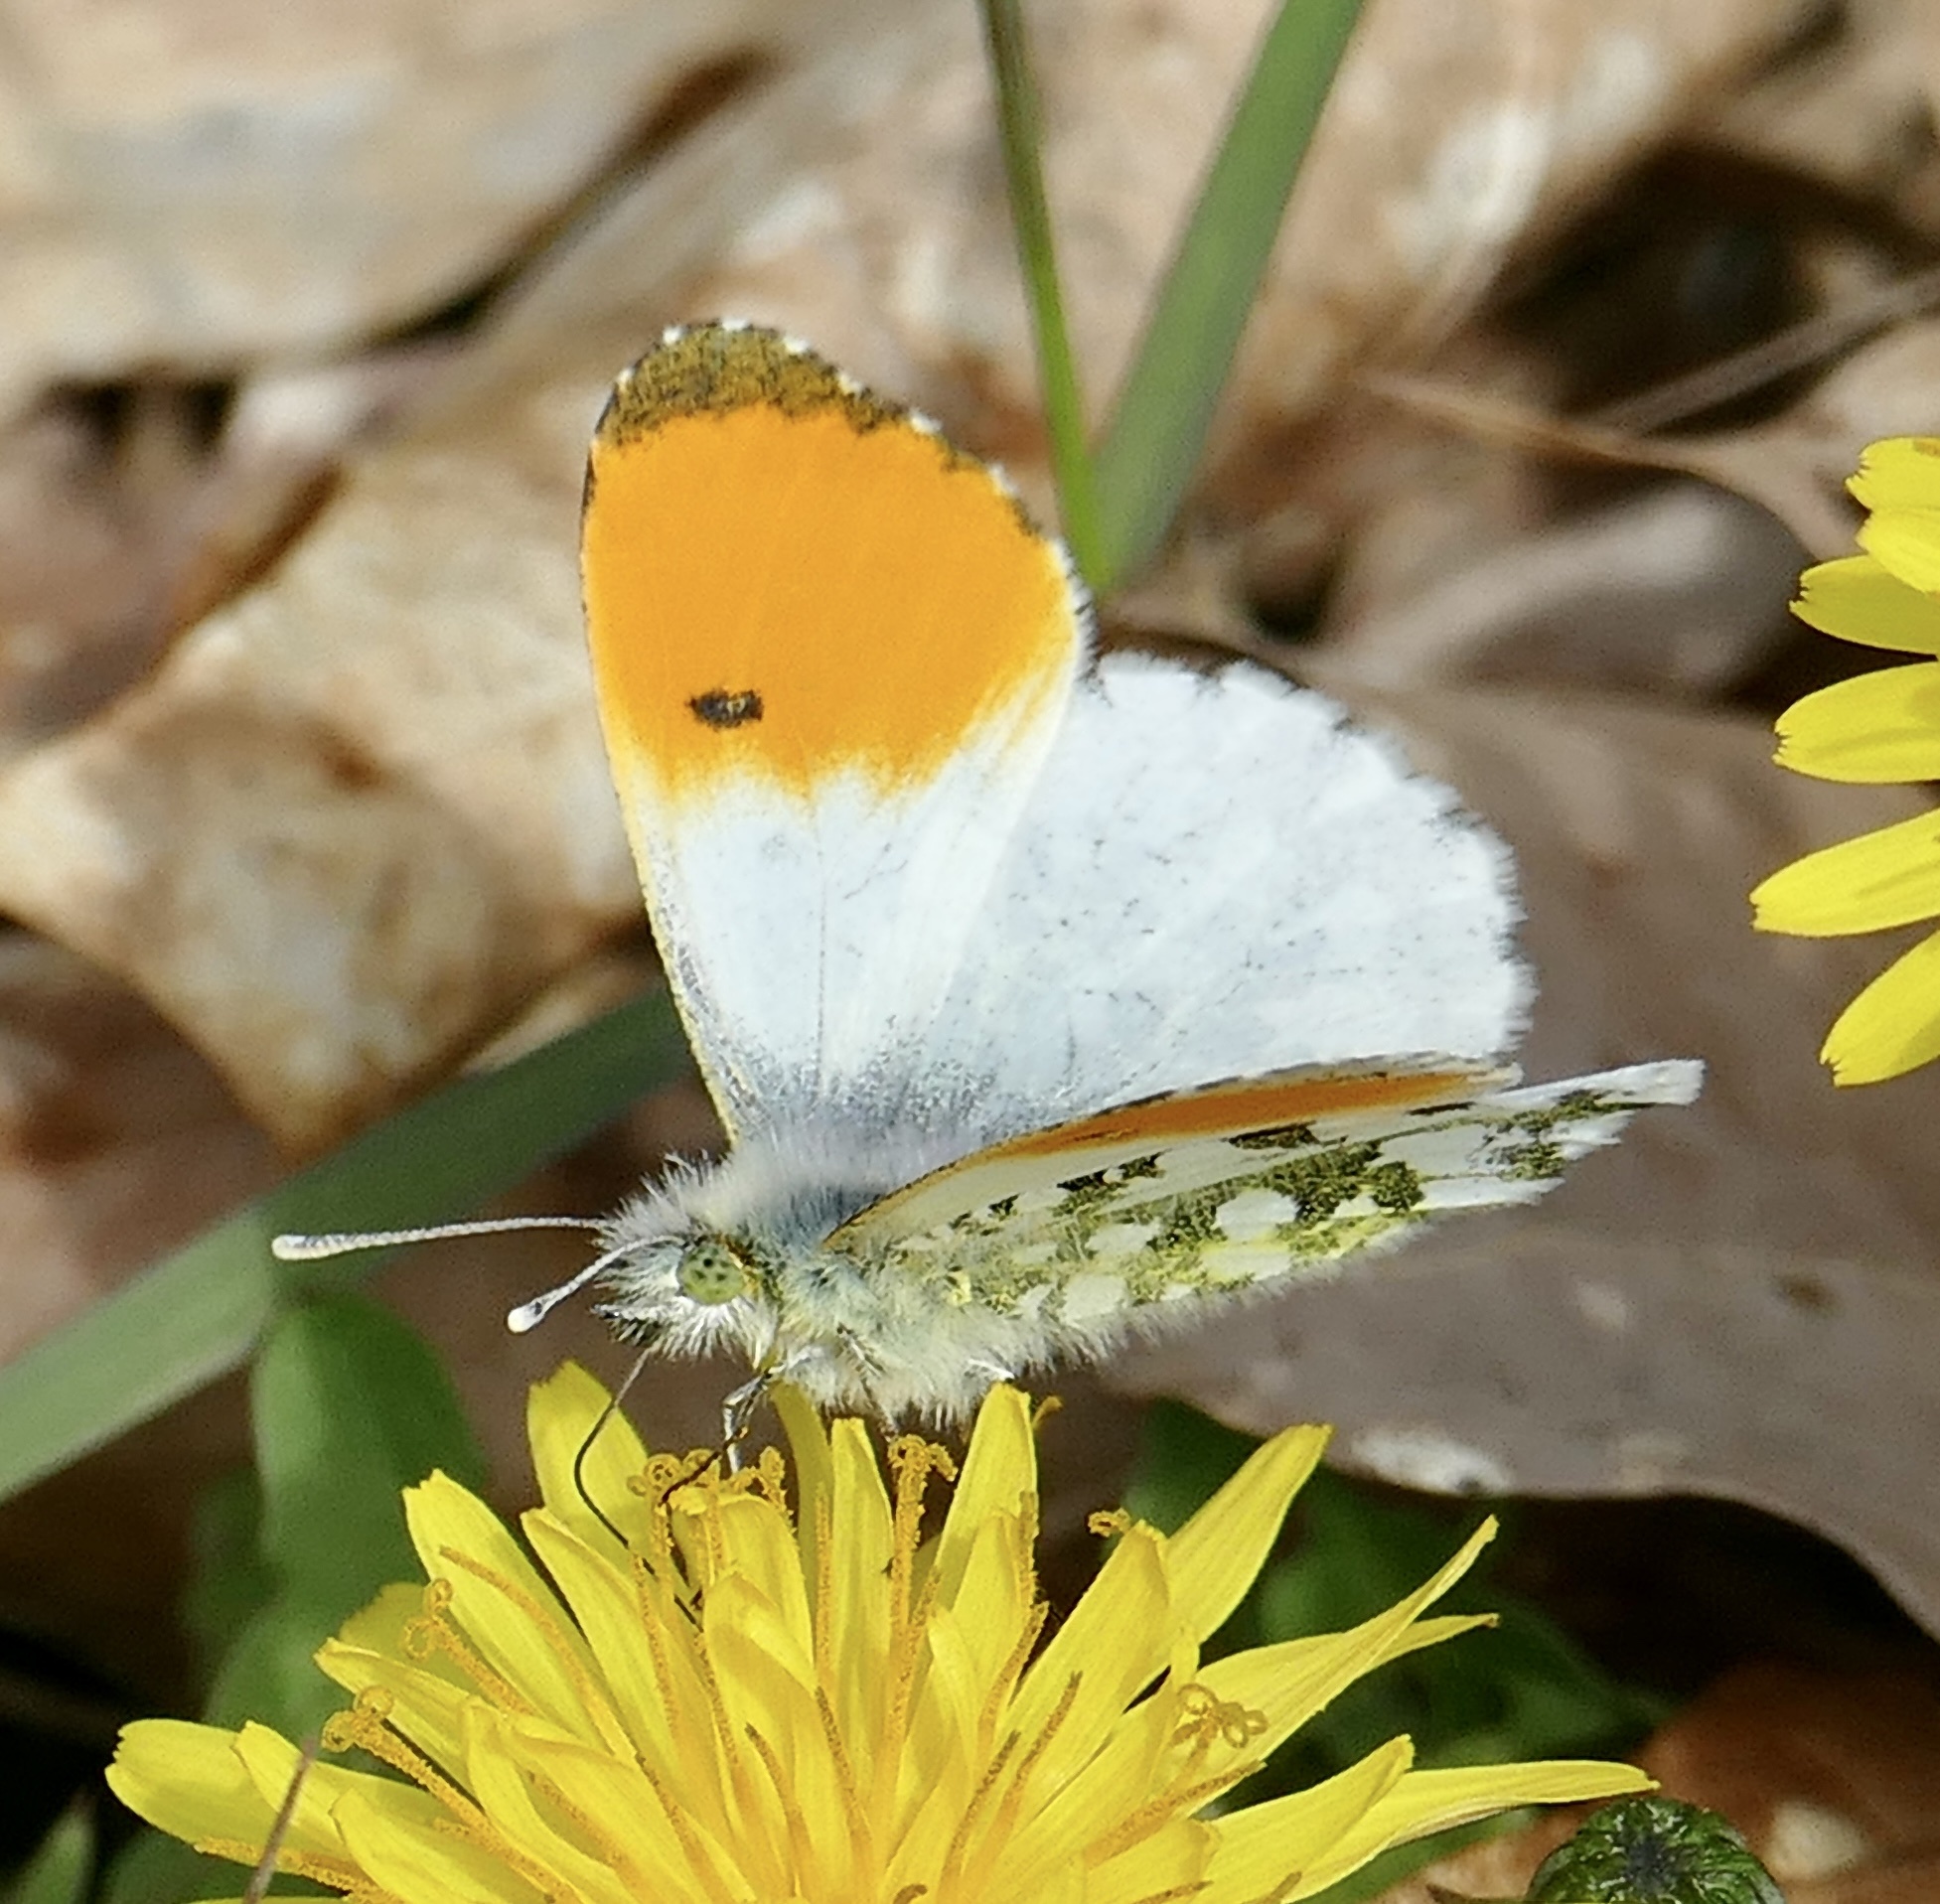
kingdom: Animalia
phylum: Arthropoda
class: Insecta
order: Lepidoptera
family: Pieridae
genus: Anthocharis
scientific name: Anthocharis cardamines
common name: Orange-tip
